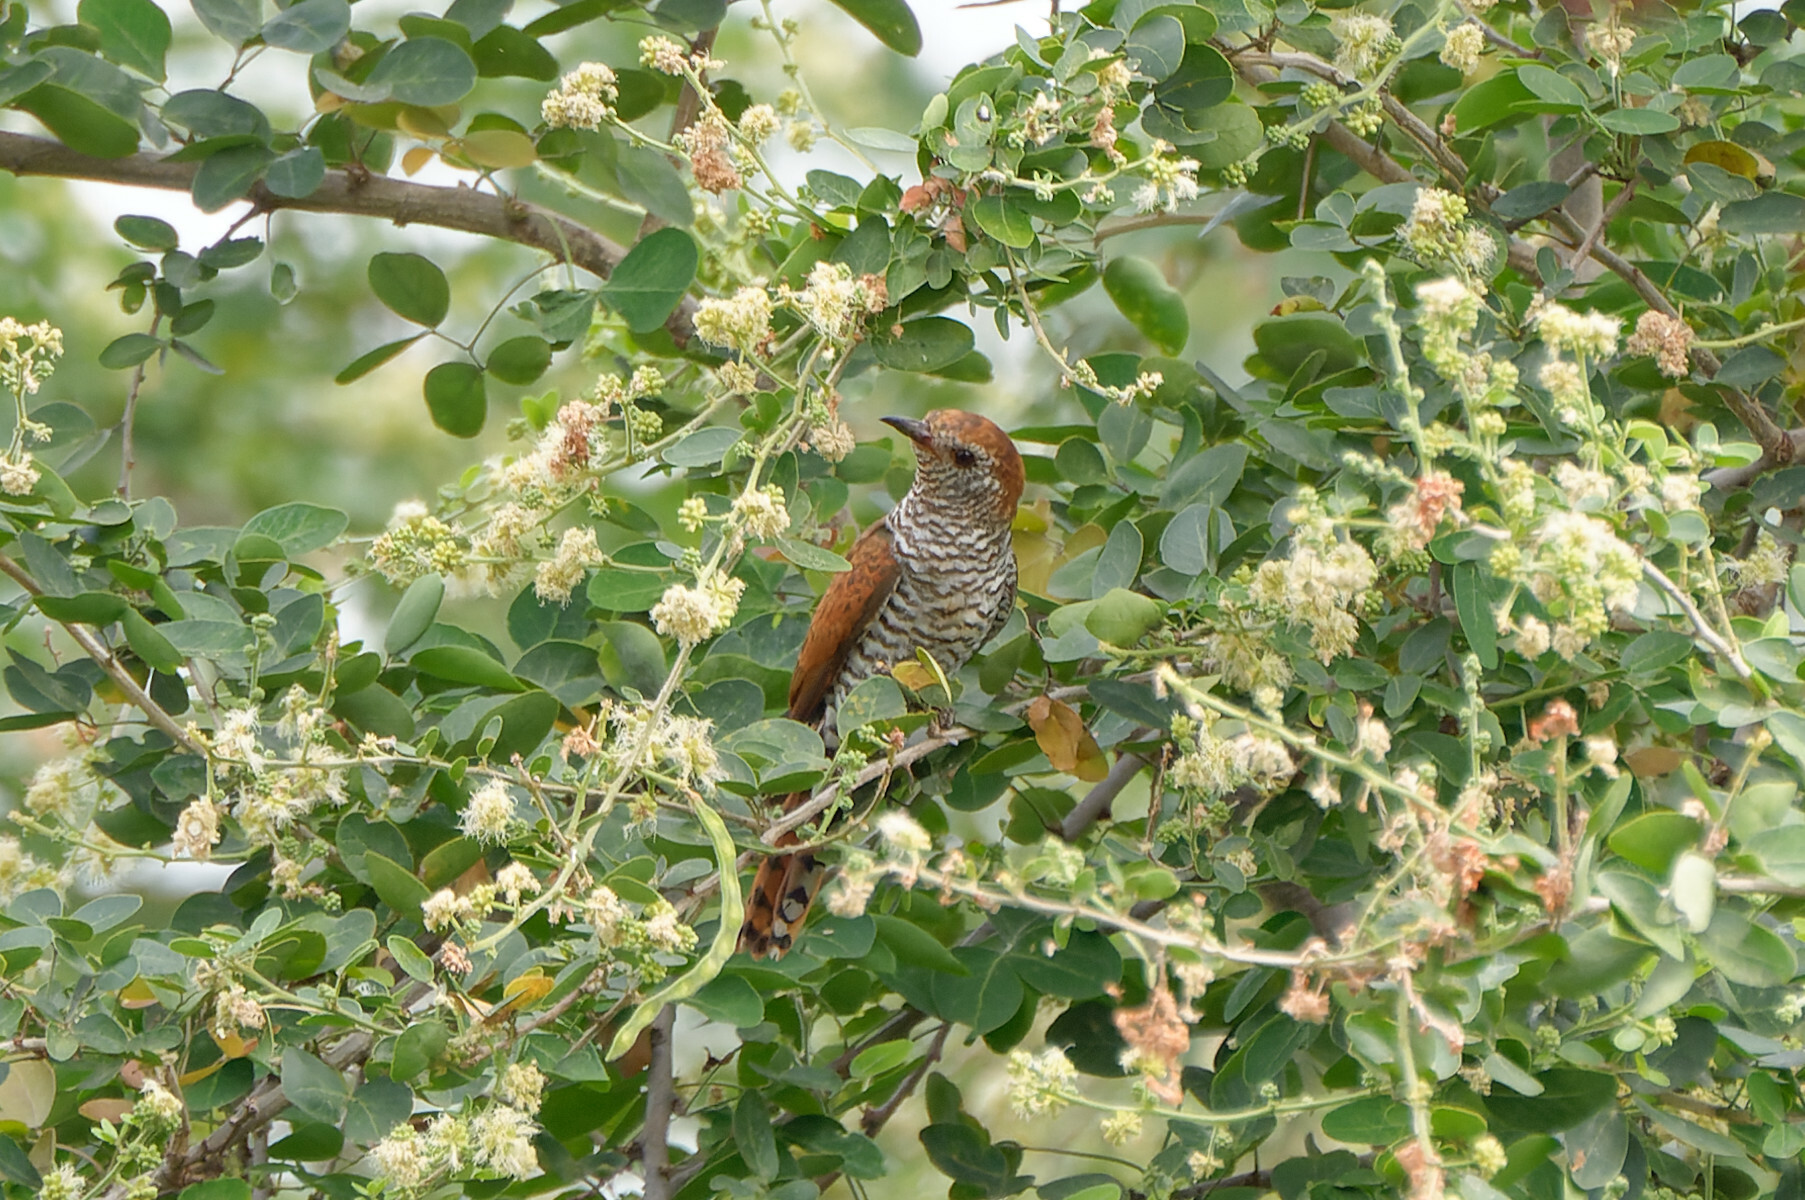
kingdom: Animalia
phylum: Chordata
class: Aves
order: Cuculiformes
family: Cuculidae
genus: Chrysococcyx
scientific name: Chrysococcyx xanthorhynchus
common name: Violet cuckoo
